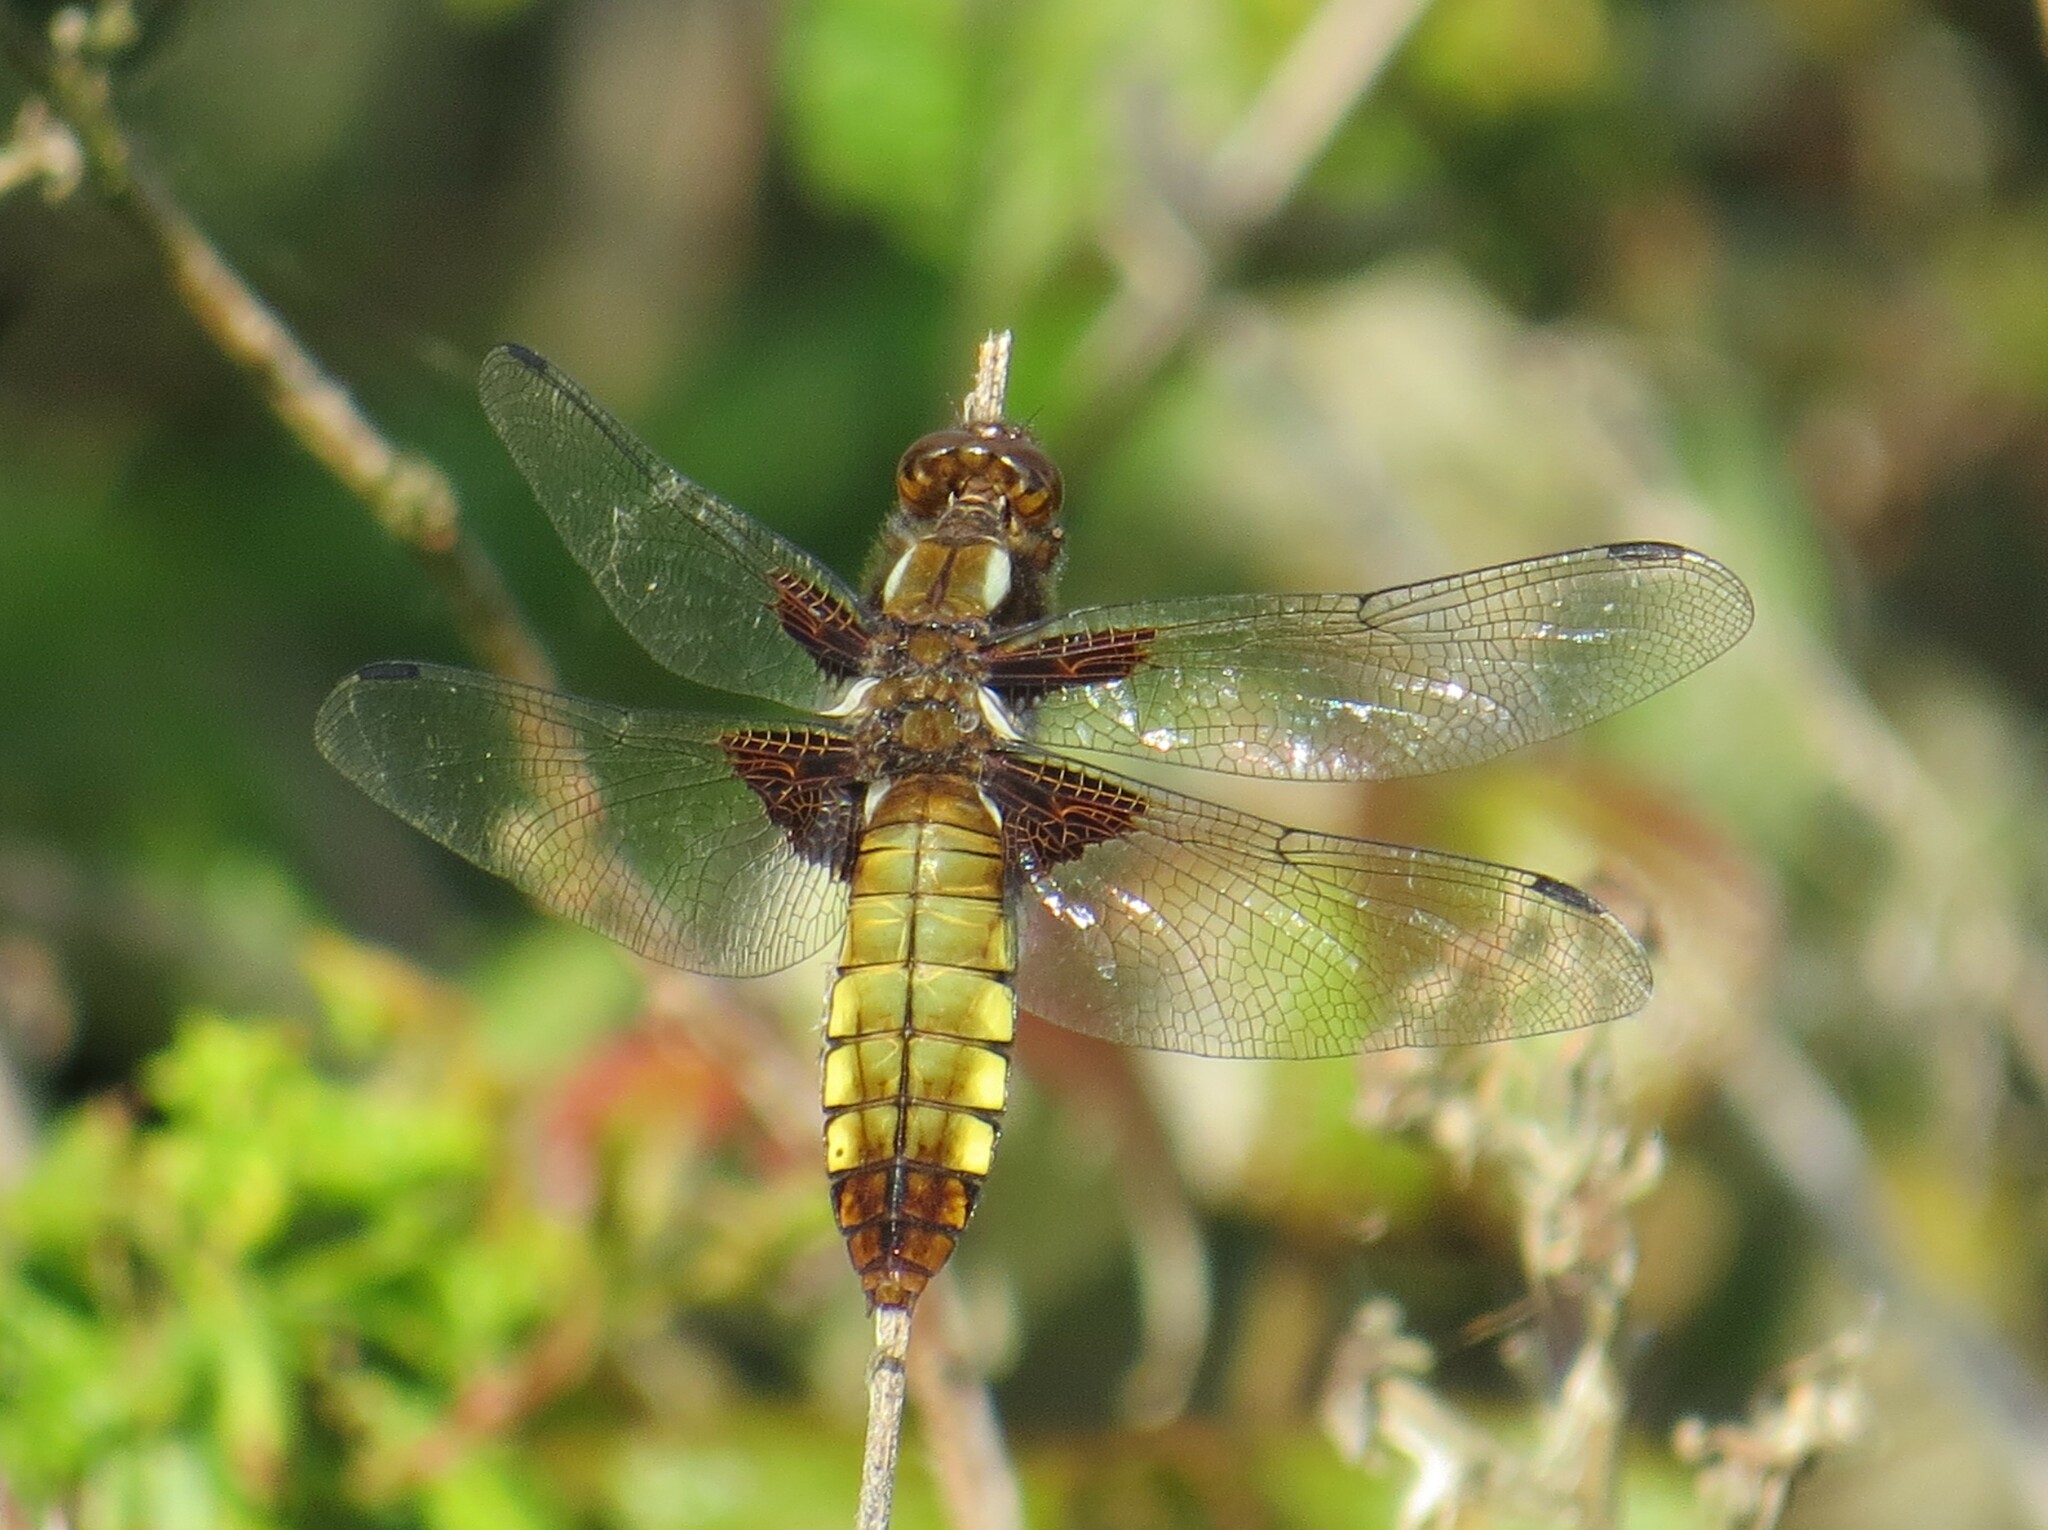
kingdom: Animalia
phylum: Arthropoda
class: Insecta
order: Odonata
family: Libellulidae
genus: Libellula
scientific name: Libellula depressa
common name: Broad-bodied chaser
